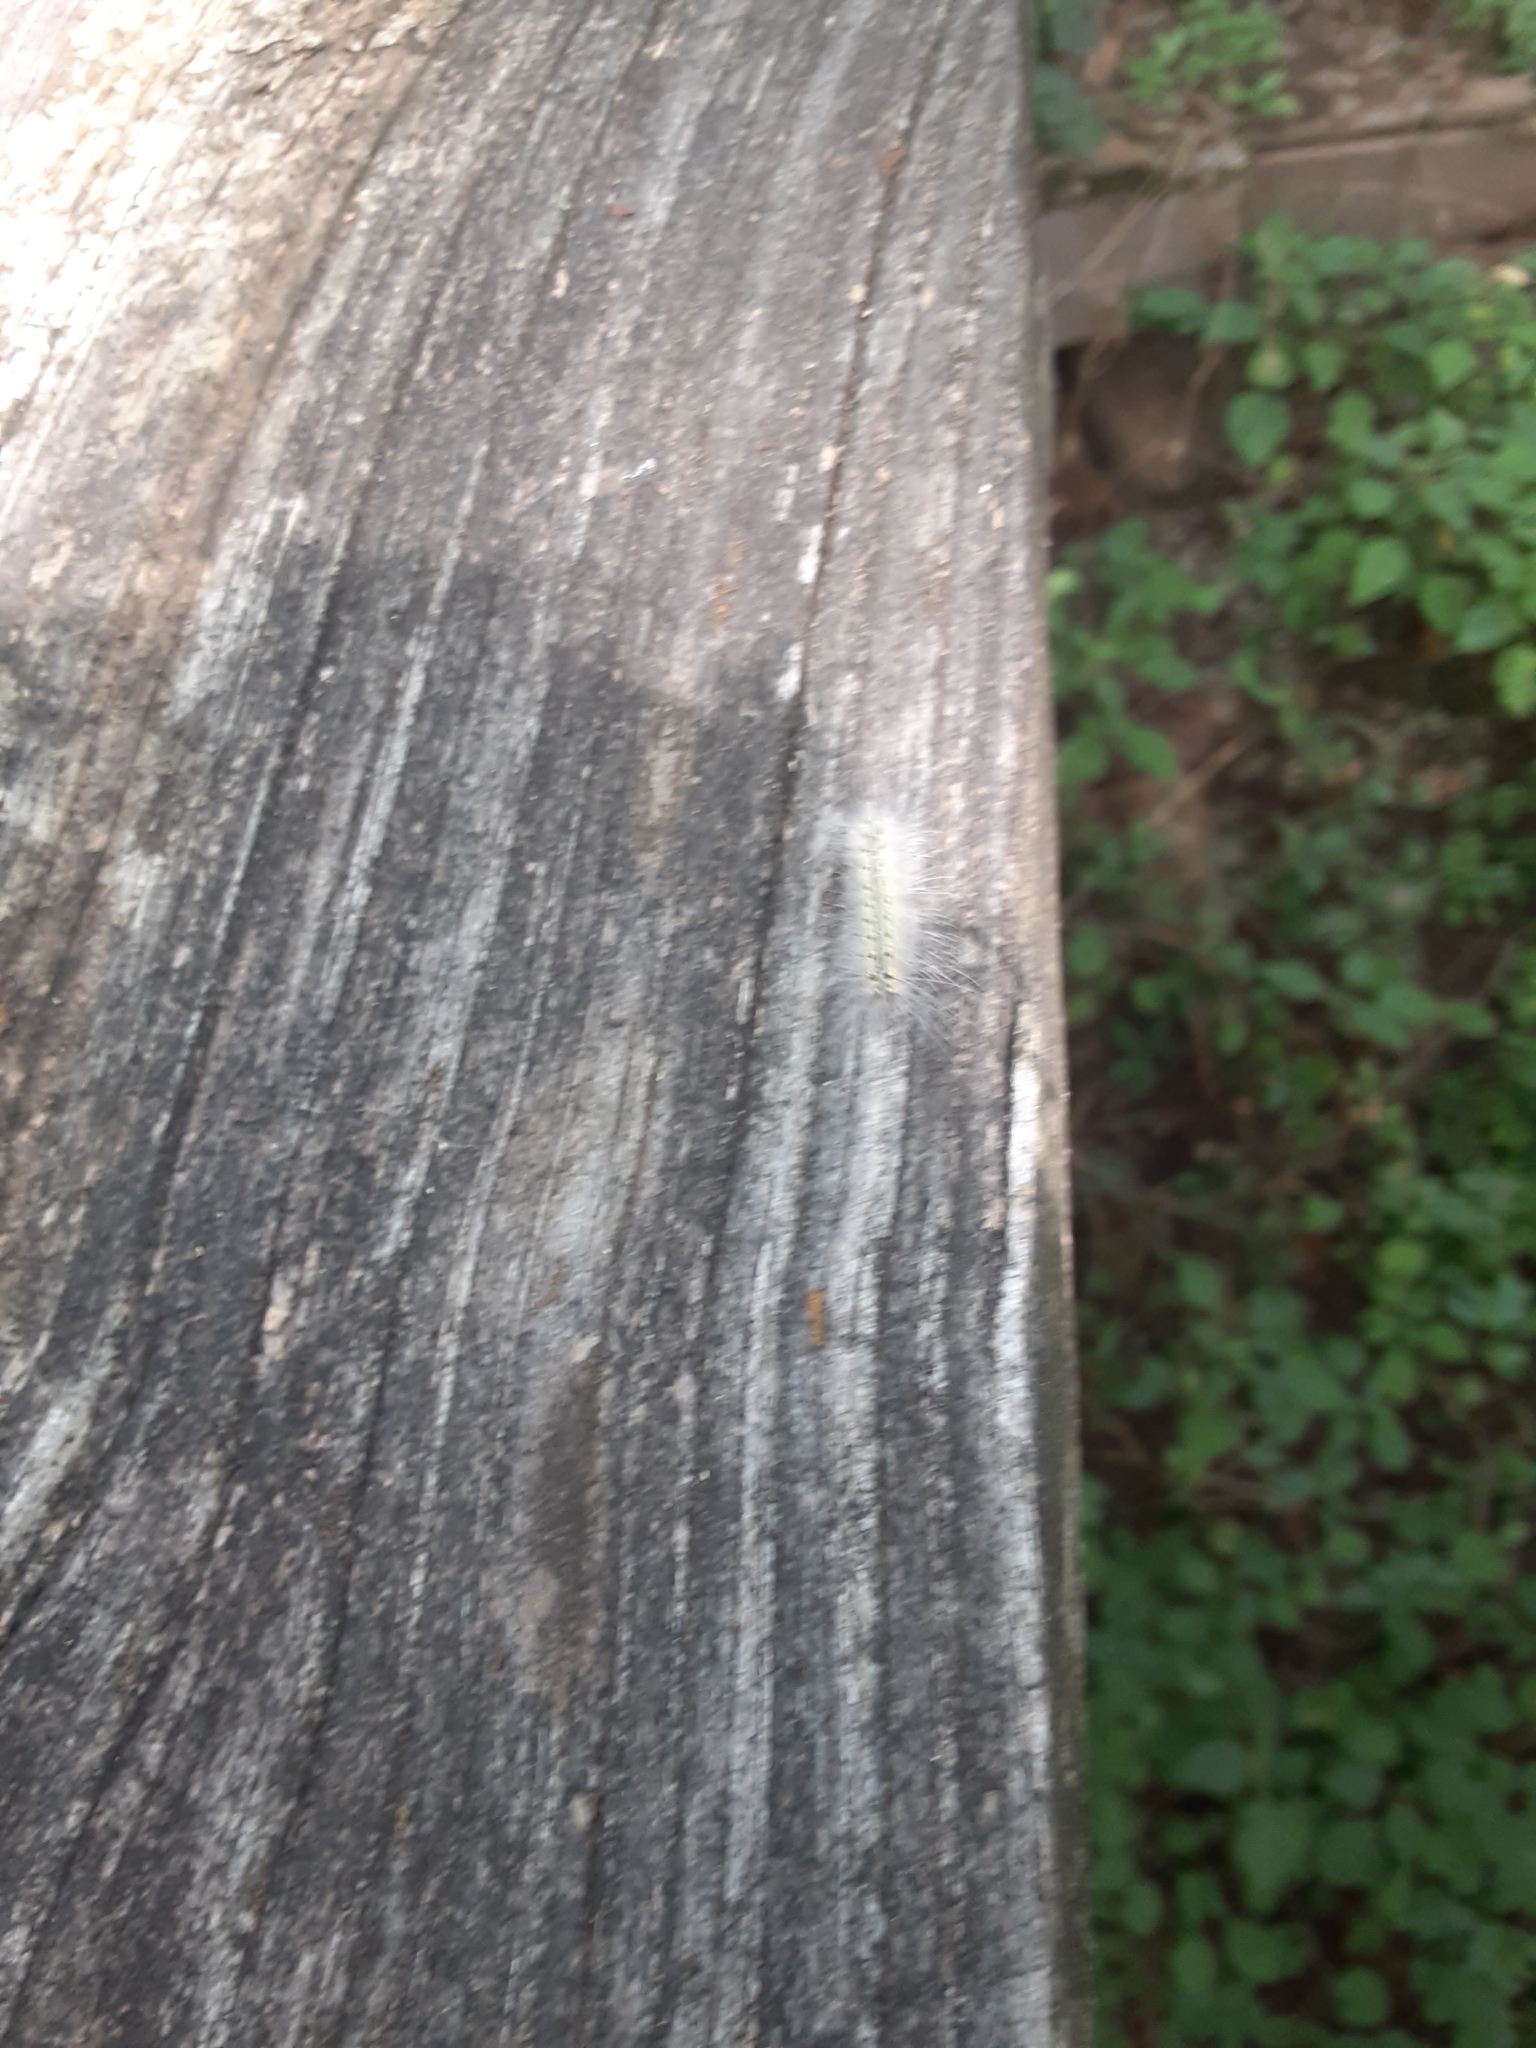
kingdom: Animalia
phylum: Arthropoda
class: Insecta
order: Lepidoptera
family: Erebidae
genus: Hyphantria
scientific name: Hyphantria cunea
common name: American white moth
